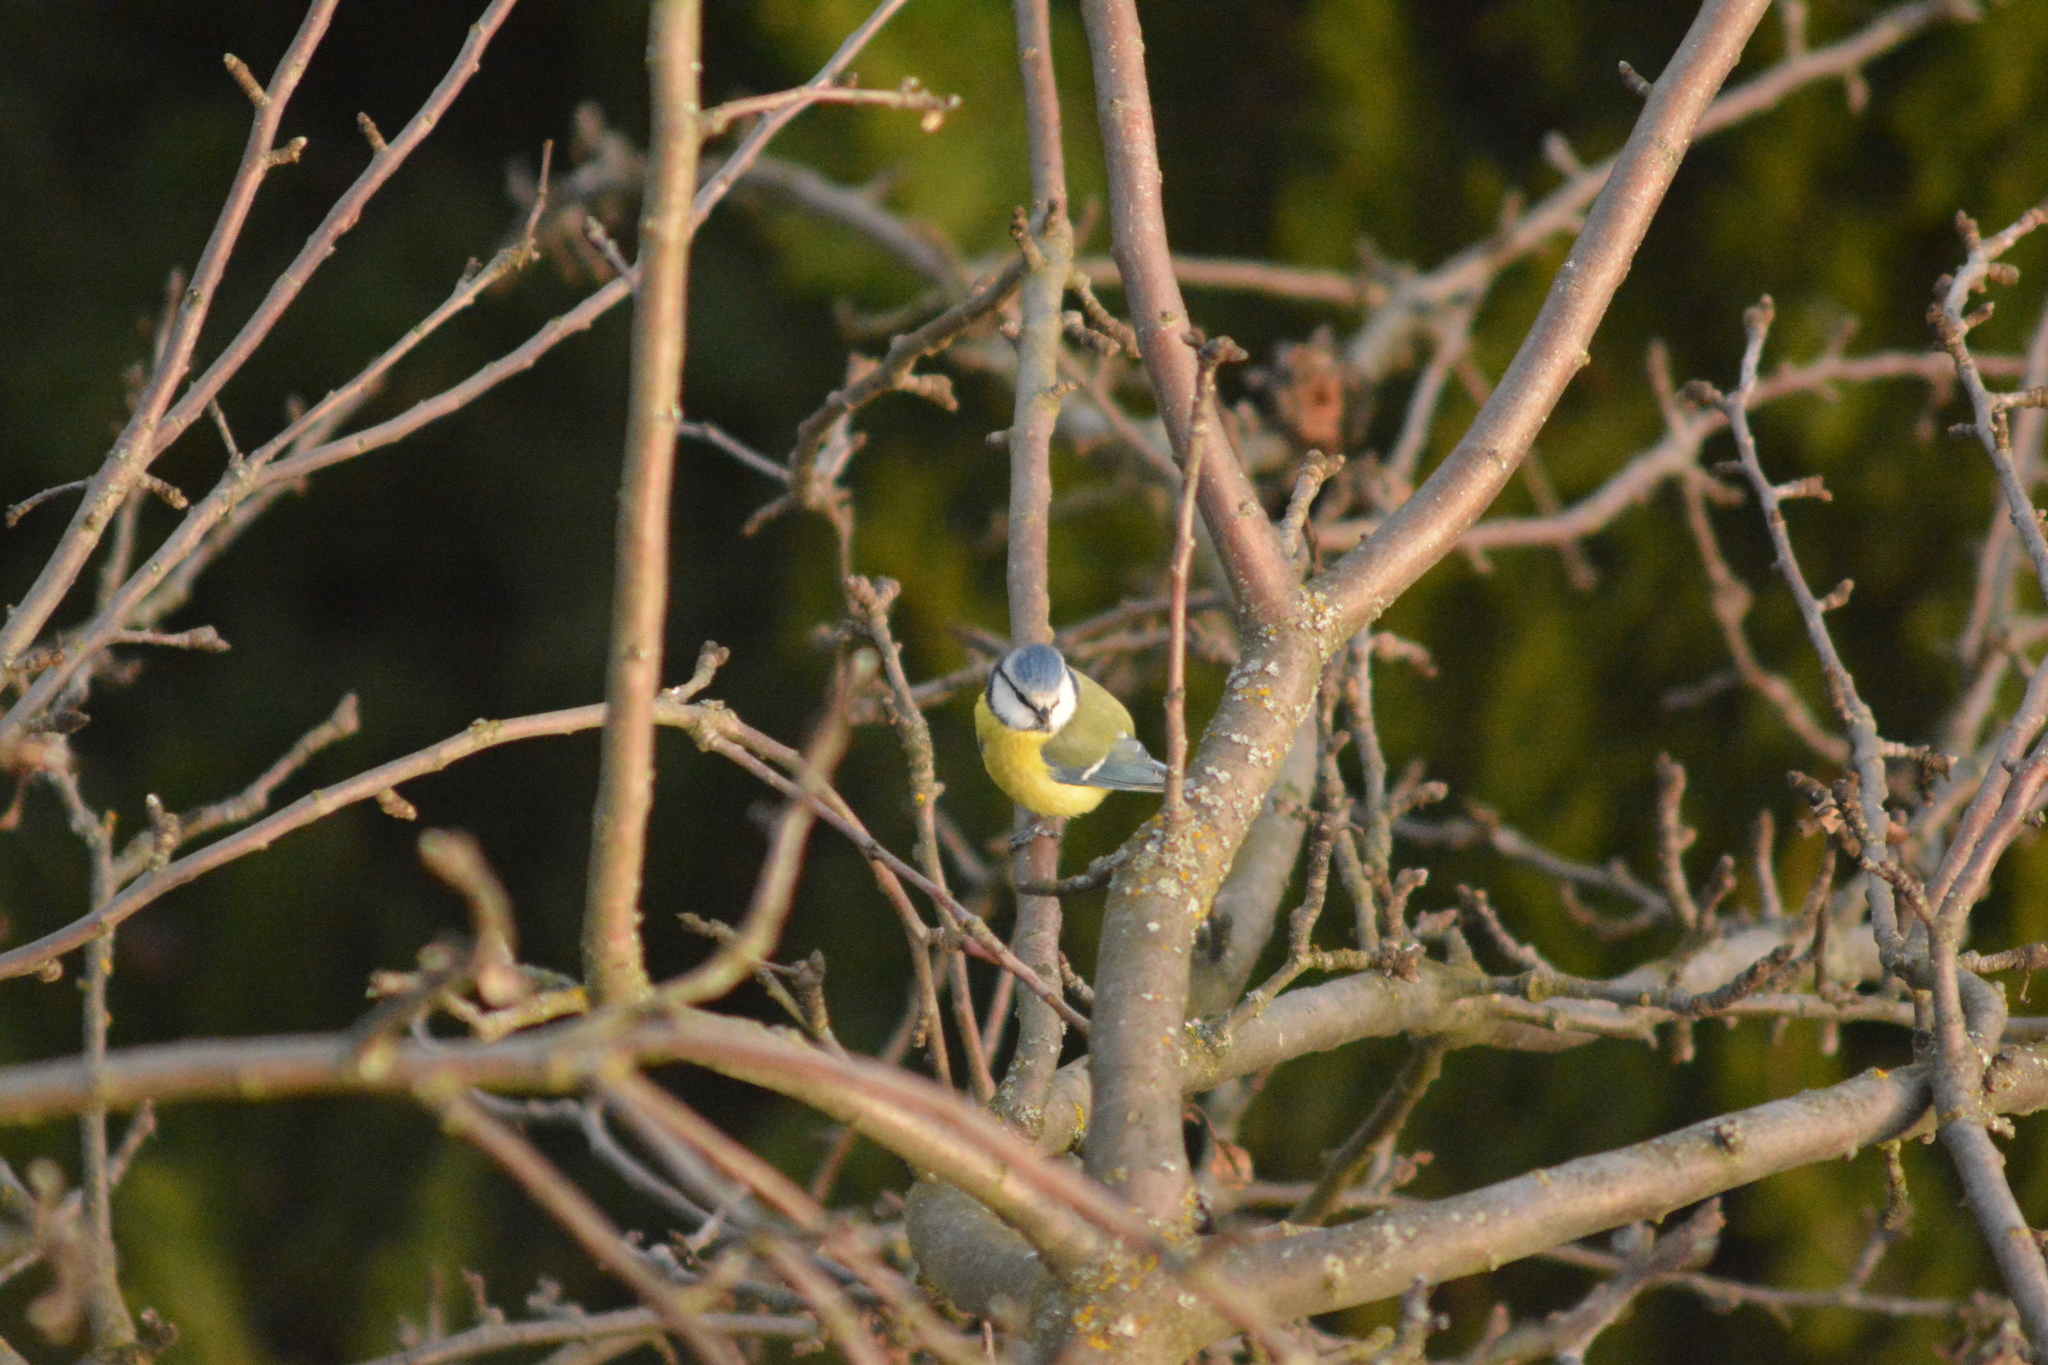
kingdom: Animalia
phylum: Chordata
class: Aves
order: Passeriformes
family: Paridae
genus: Cyanistes
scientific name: Cyanistes caeruleus
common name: Eurasian blue tit
